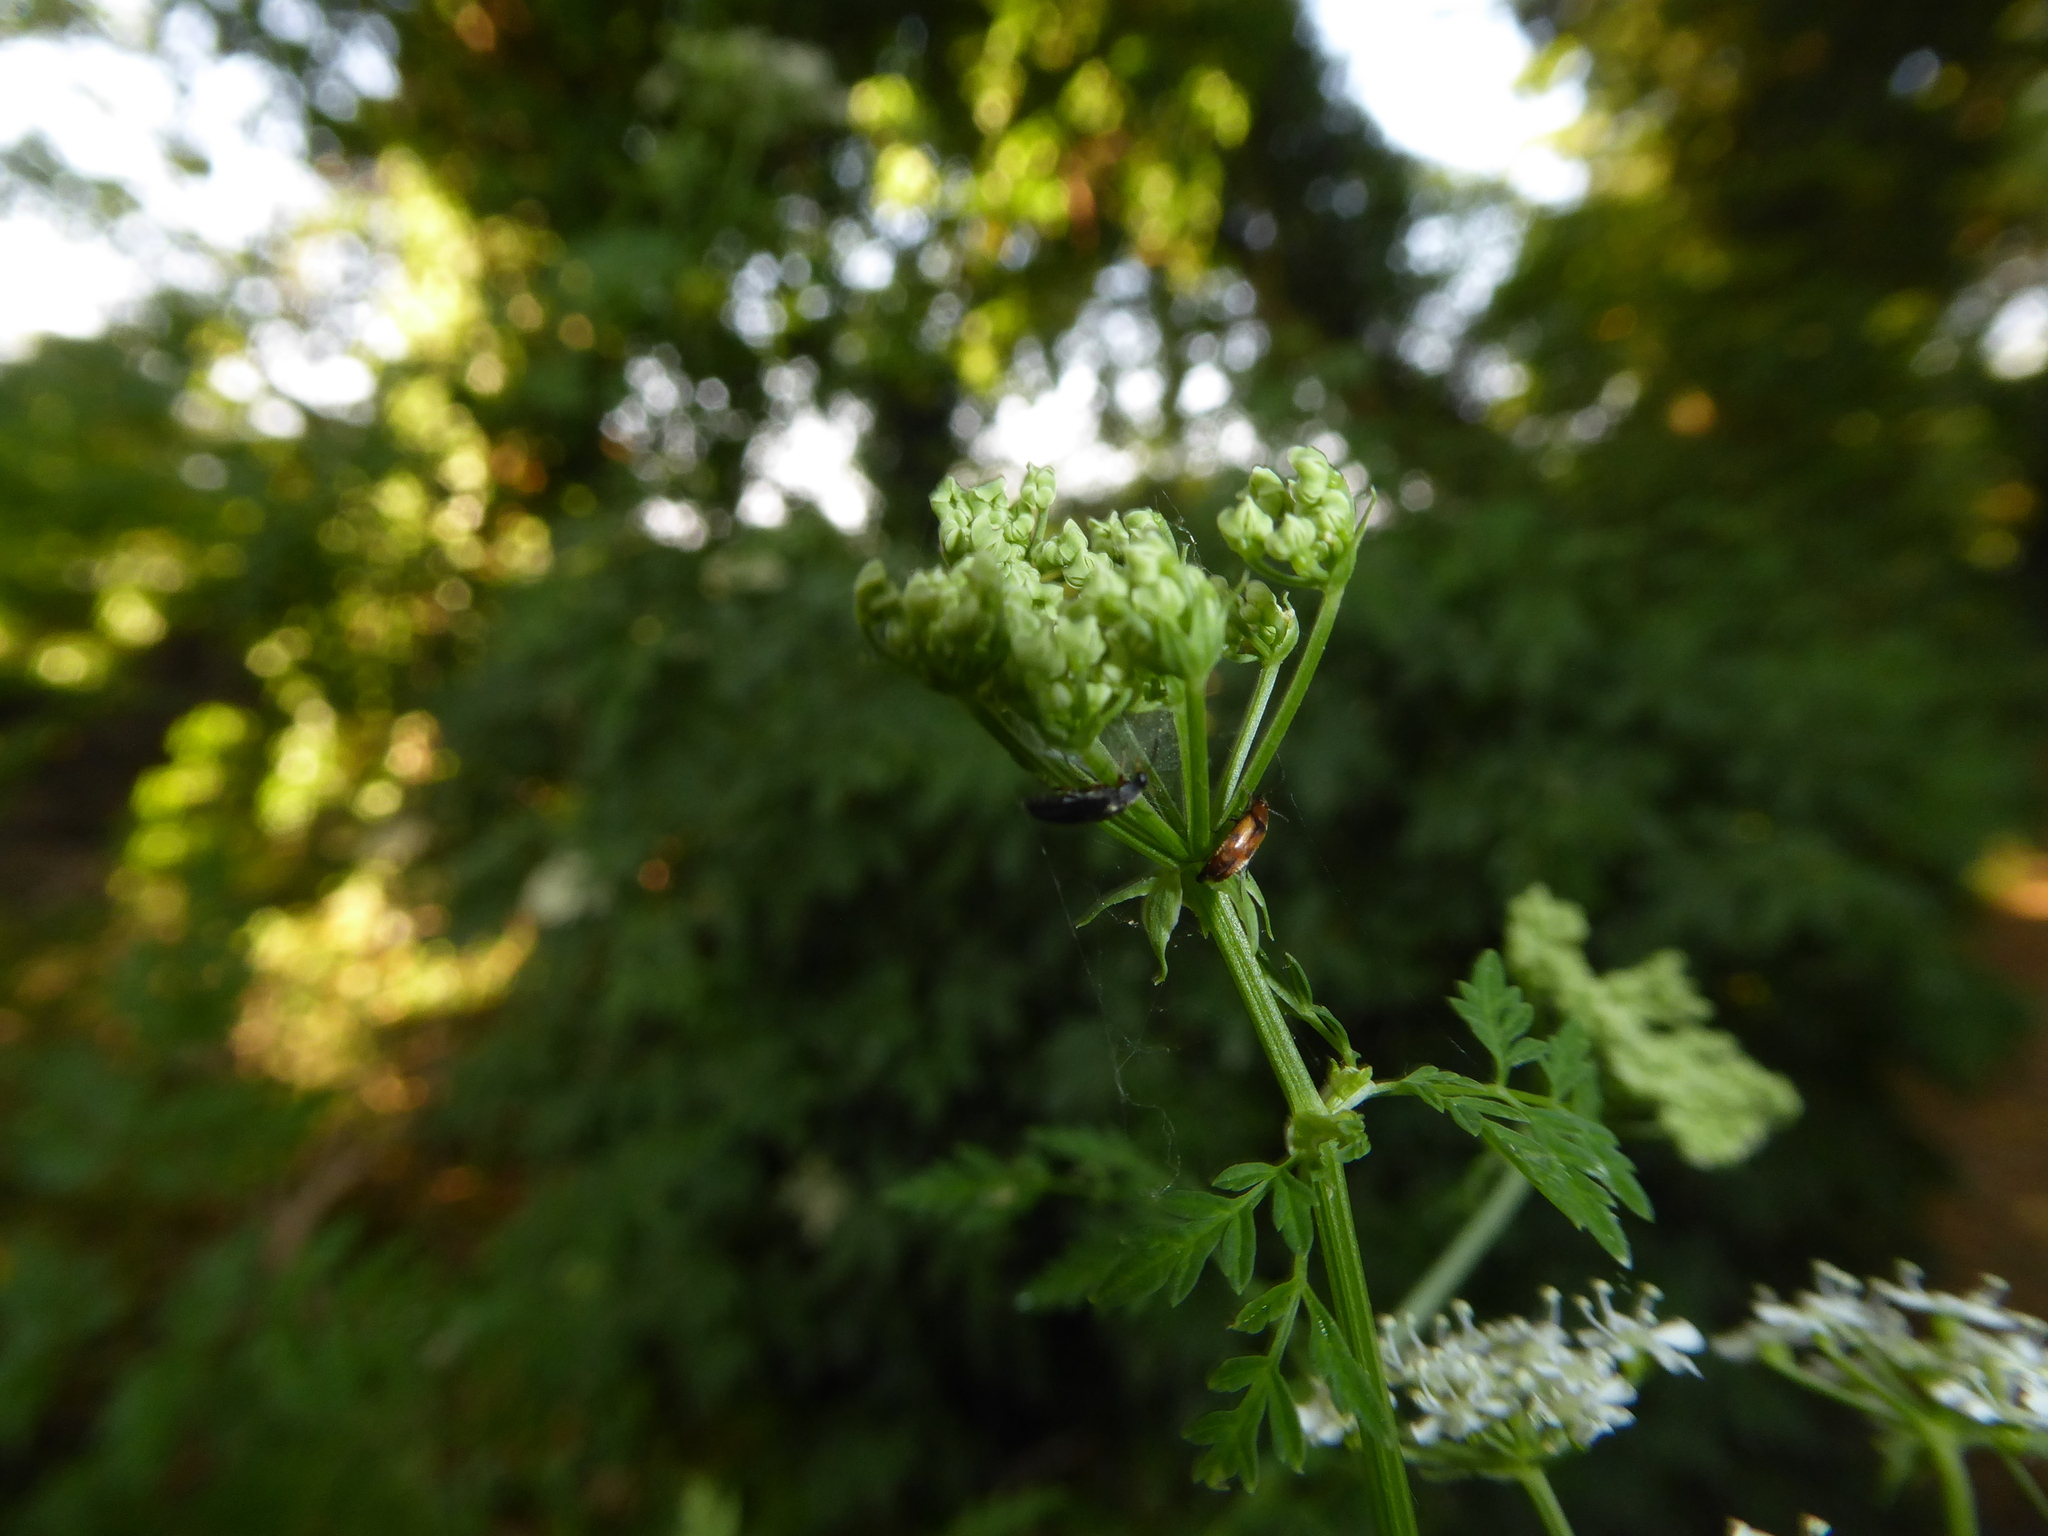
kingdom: Animalia
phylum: Arthropoda
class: Insecta
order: Coleoptera
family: Scraptiidae
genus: Anaspis
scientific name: Anaspis maculata
